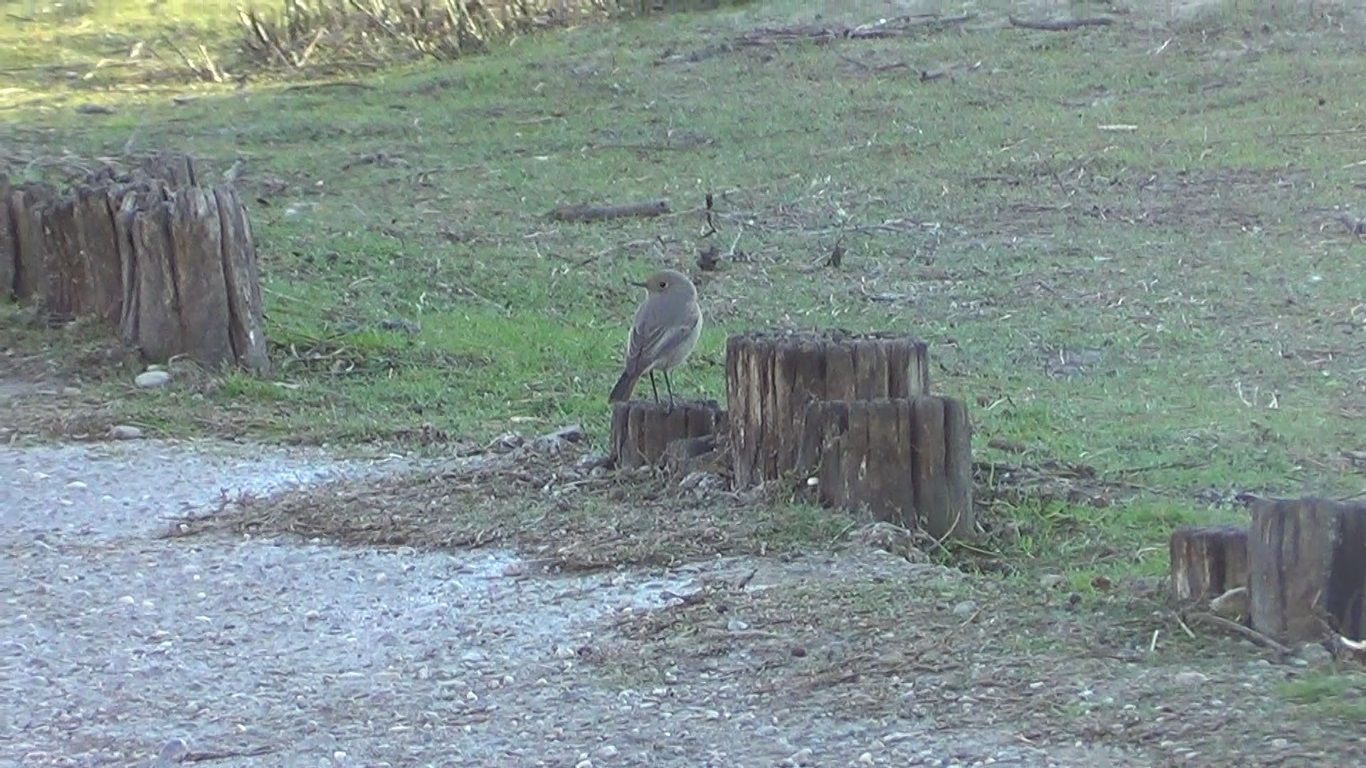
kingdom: Animalia
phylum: Chordata
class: Aves
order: Passeriformes
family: Muscicapidae
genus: Phoenicurus
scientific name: Phoenicurus ochruros
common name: Black redstart
